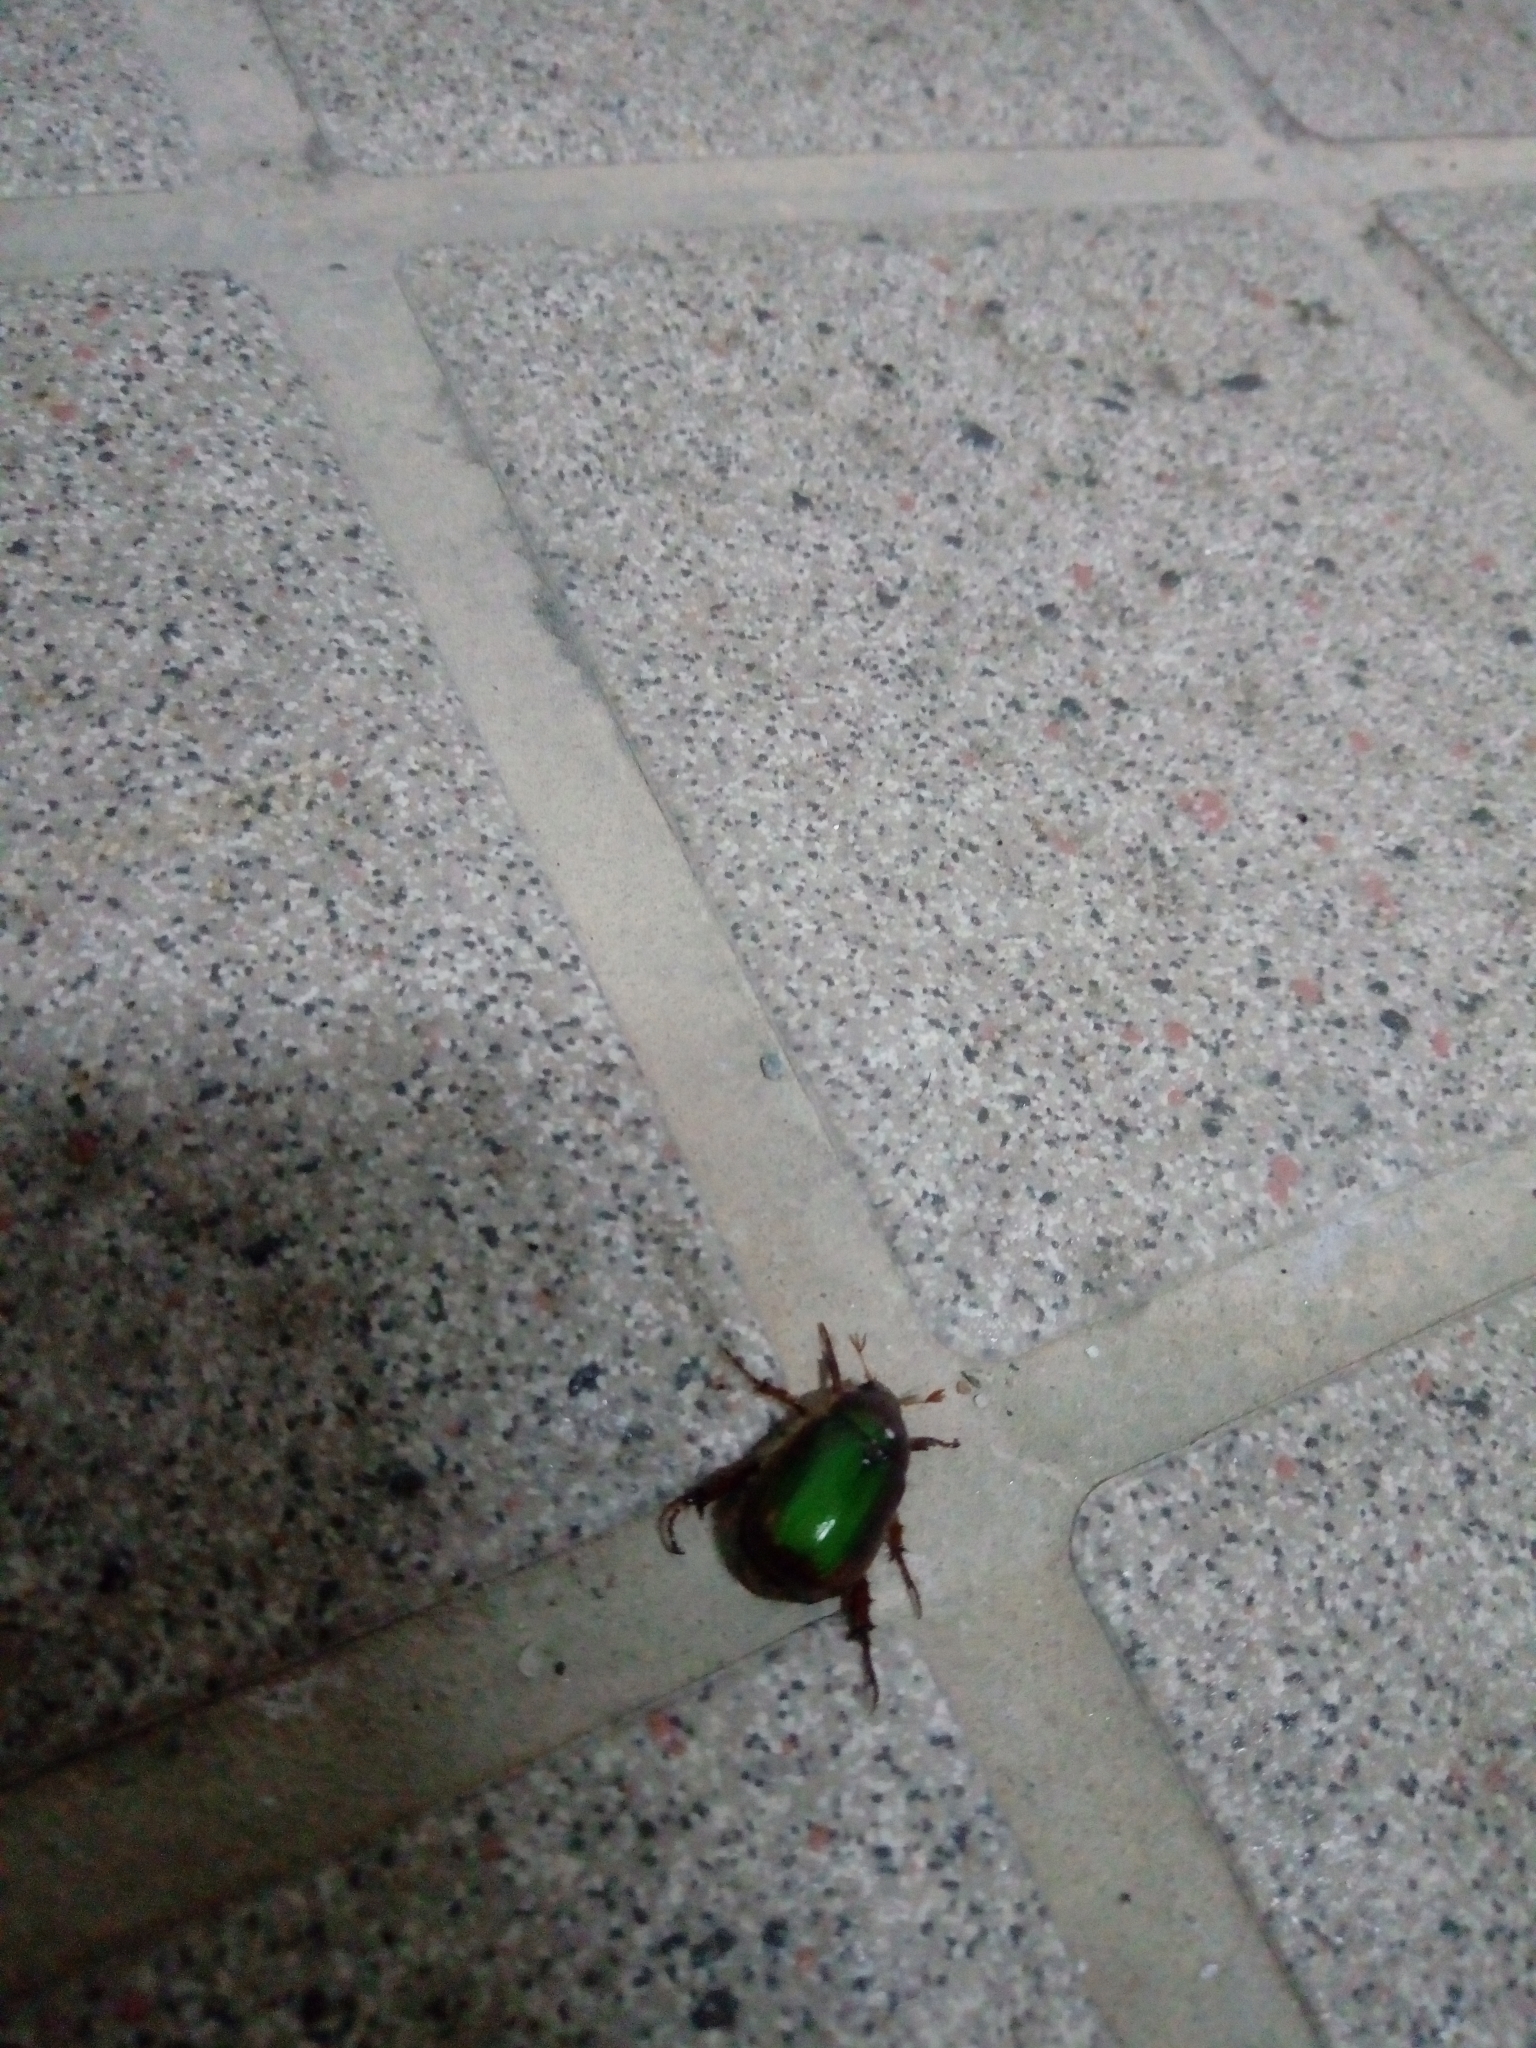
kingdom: Animalia
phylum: Arthropoda
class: Insecta
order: Coleoptera
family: Scarabaeidae
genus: Anomala
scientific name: Anomala limbifera
